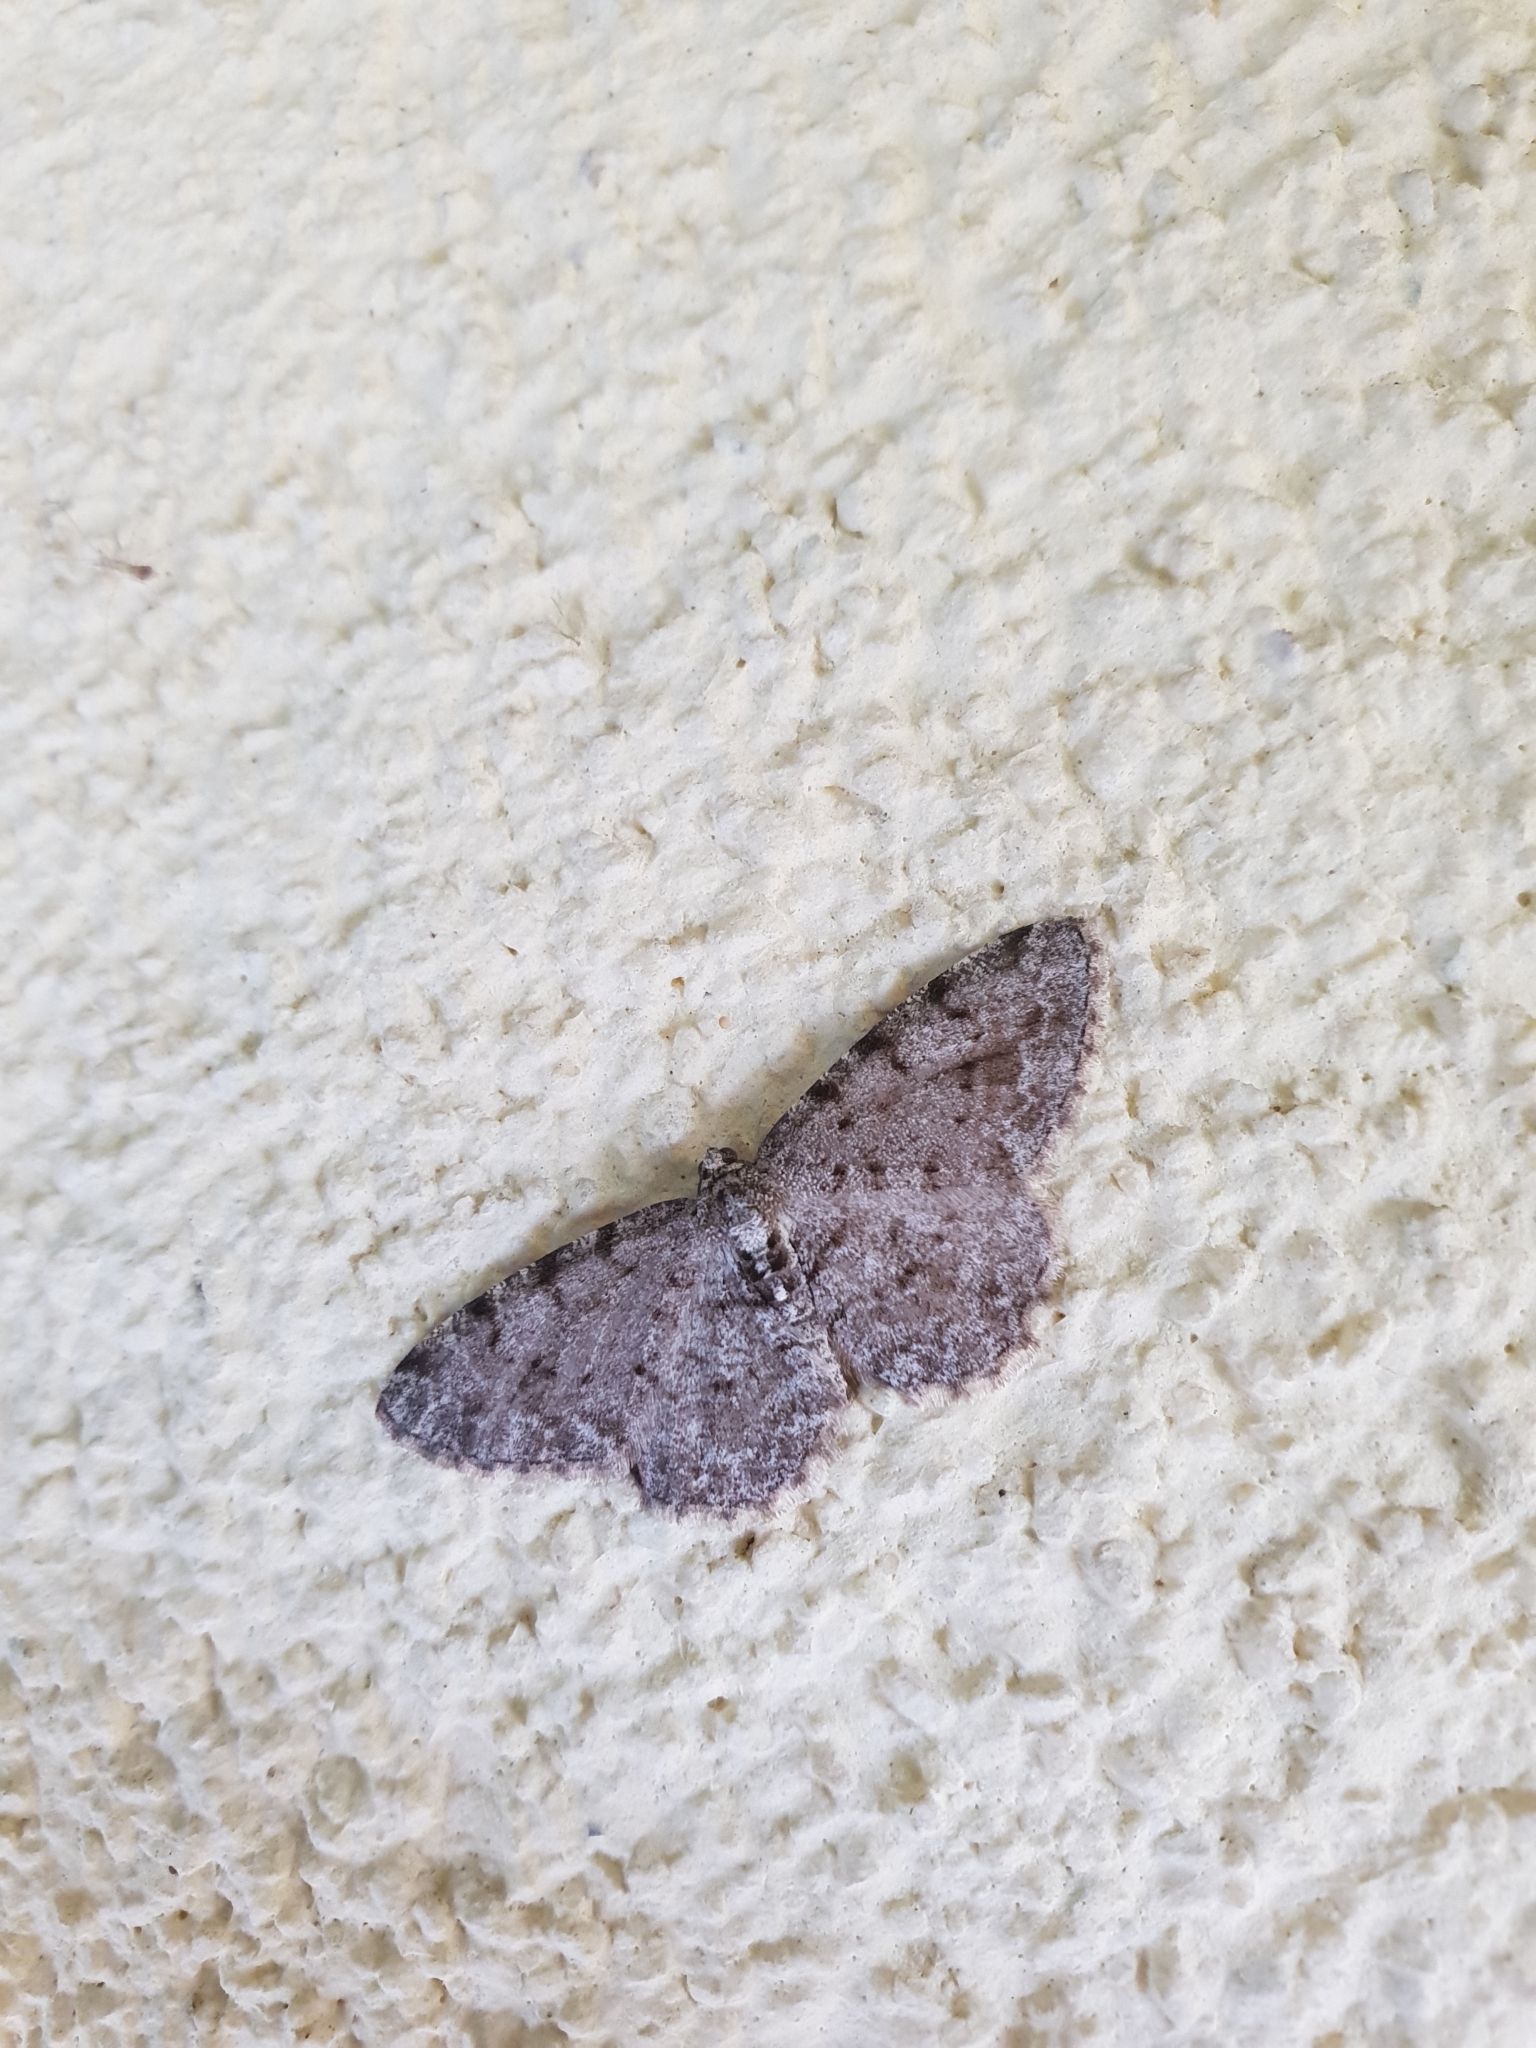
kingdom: Animalia
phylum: Arthropoda
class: Insecta
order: Lepidoptera
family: Geometridae
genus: Aethalura
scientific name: Aethalura punctulata
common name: Grey birch
